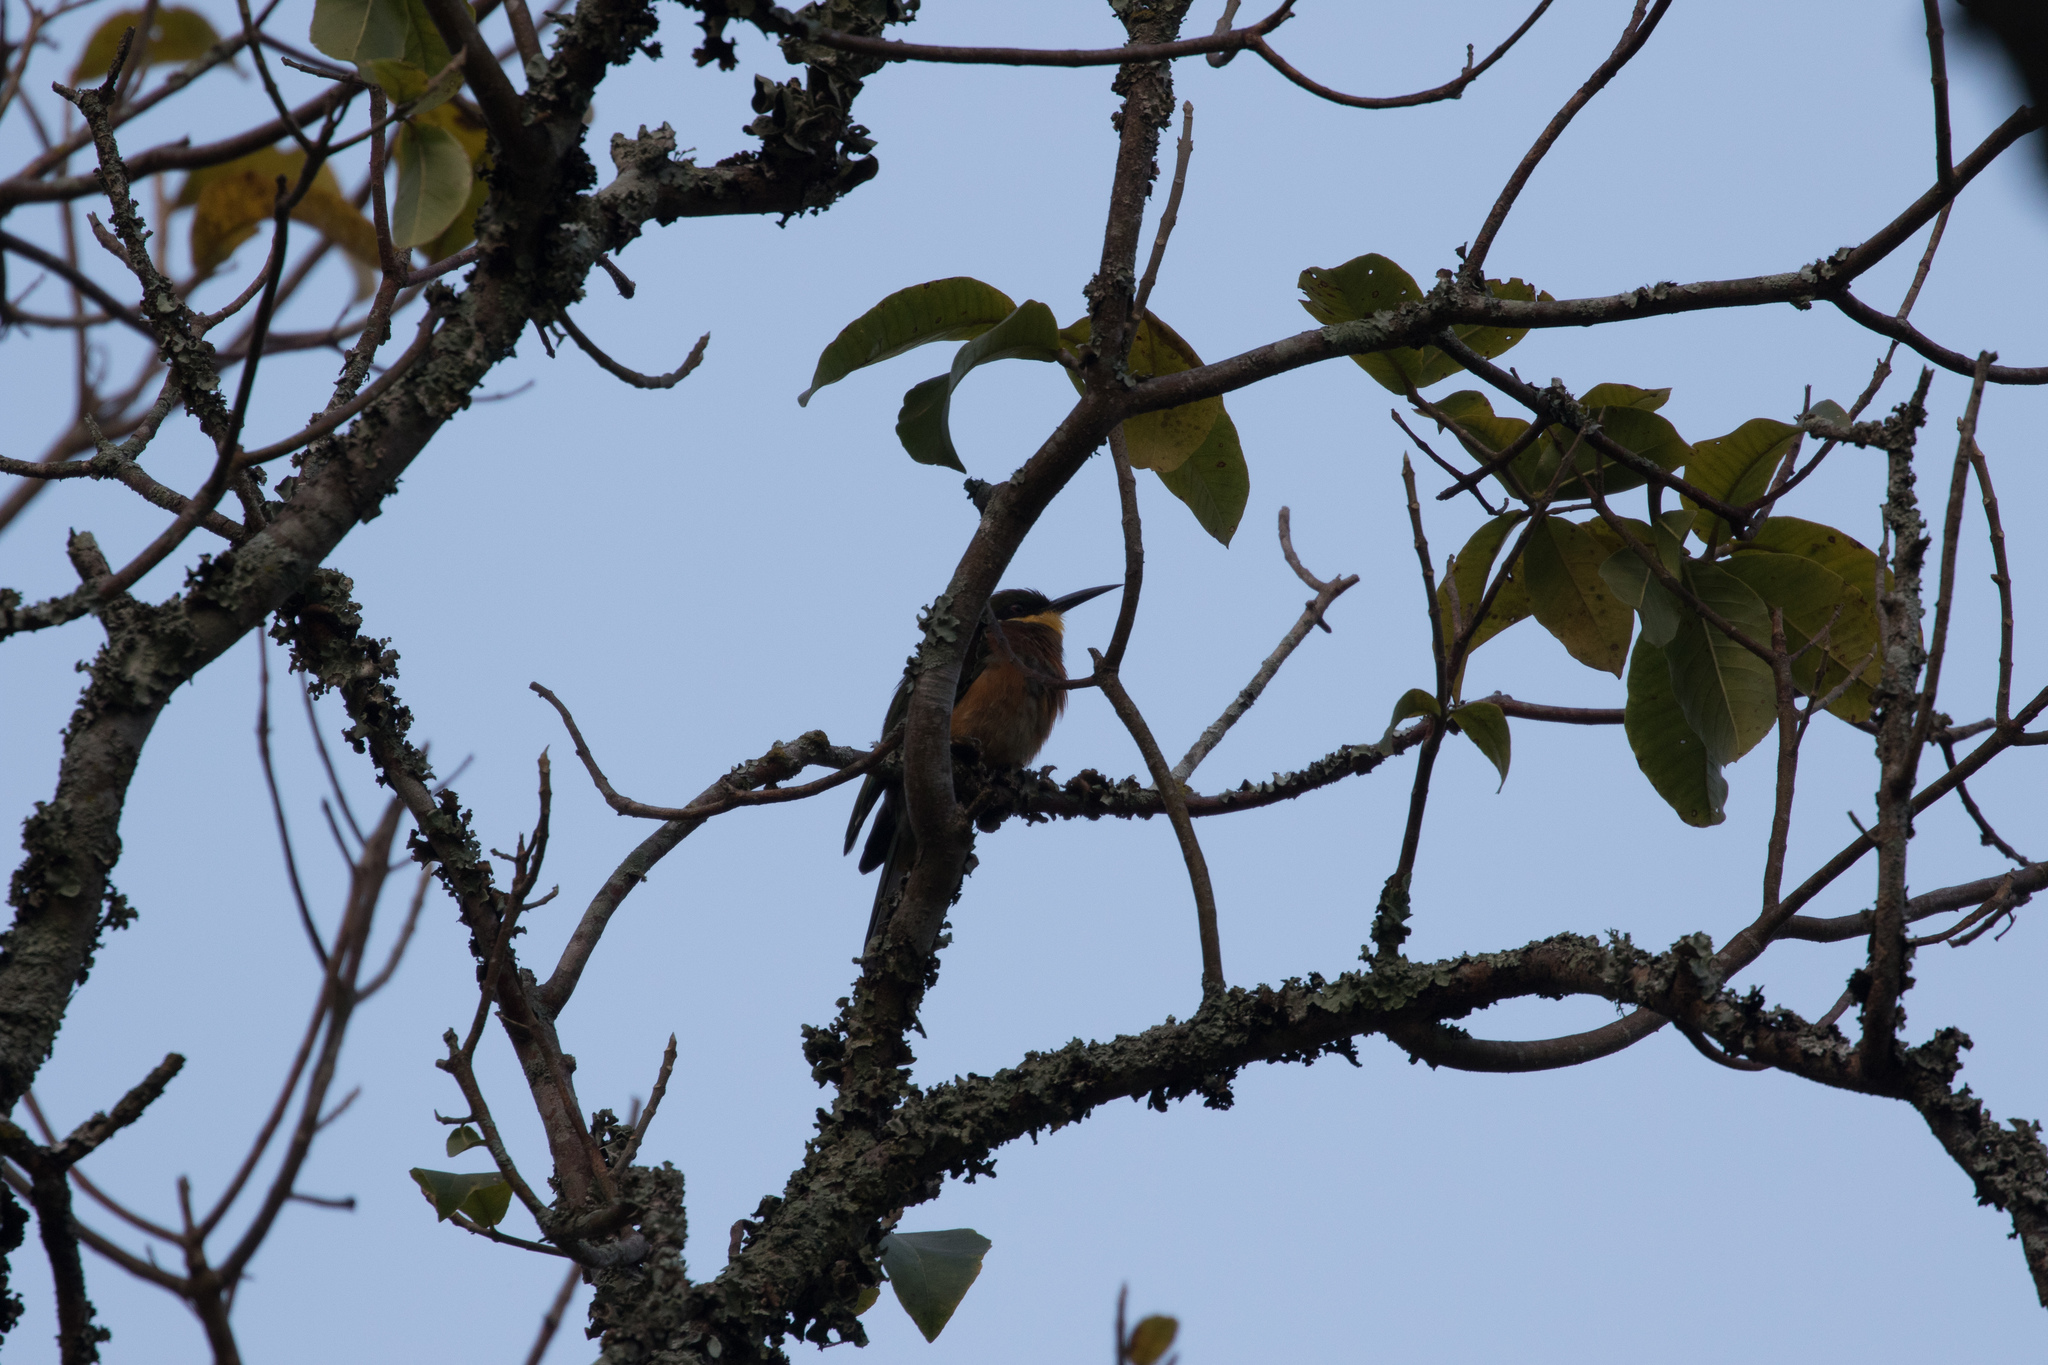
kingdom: Animalia
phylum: Chordata
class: Aves
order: Coraciiformes
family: Meropidae
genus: Merops
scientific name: Merops oreobates
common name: Cinnamon-chested bee-eater
